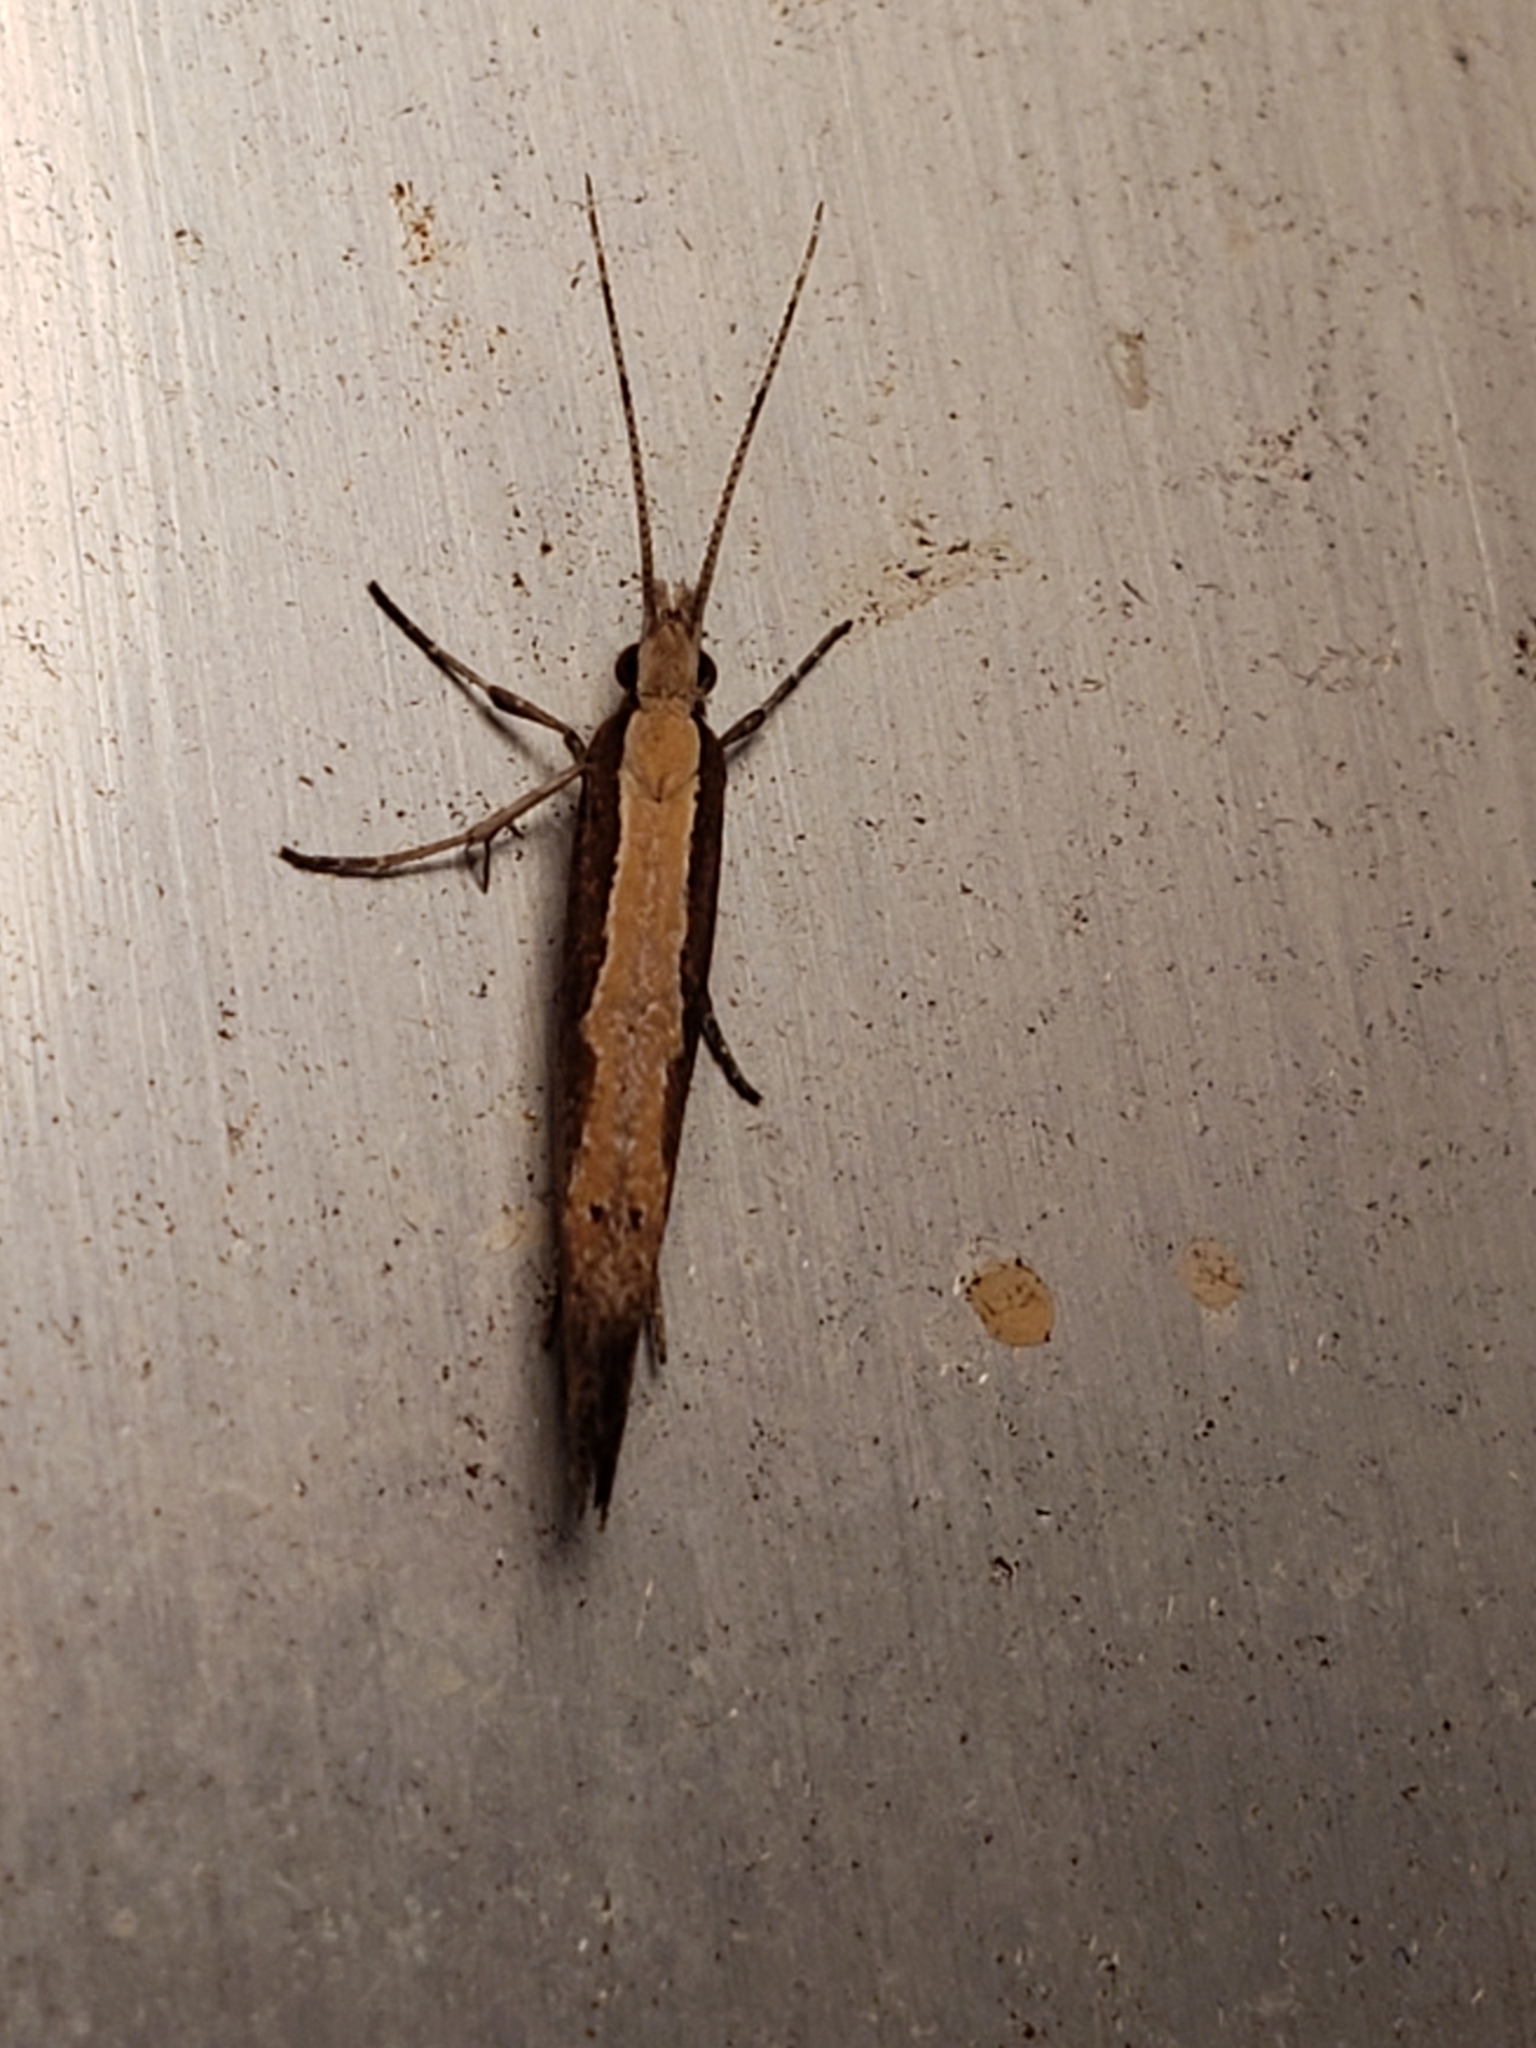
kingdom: Animalia
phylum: Arthropoda
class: Insecta
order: Lepidoptera
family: Plutellidae
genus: Plutella
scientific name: Plutella xylostella
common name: Diamond-back moth
